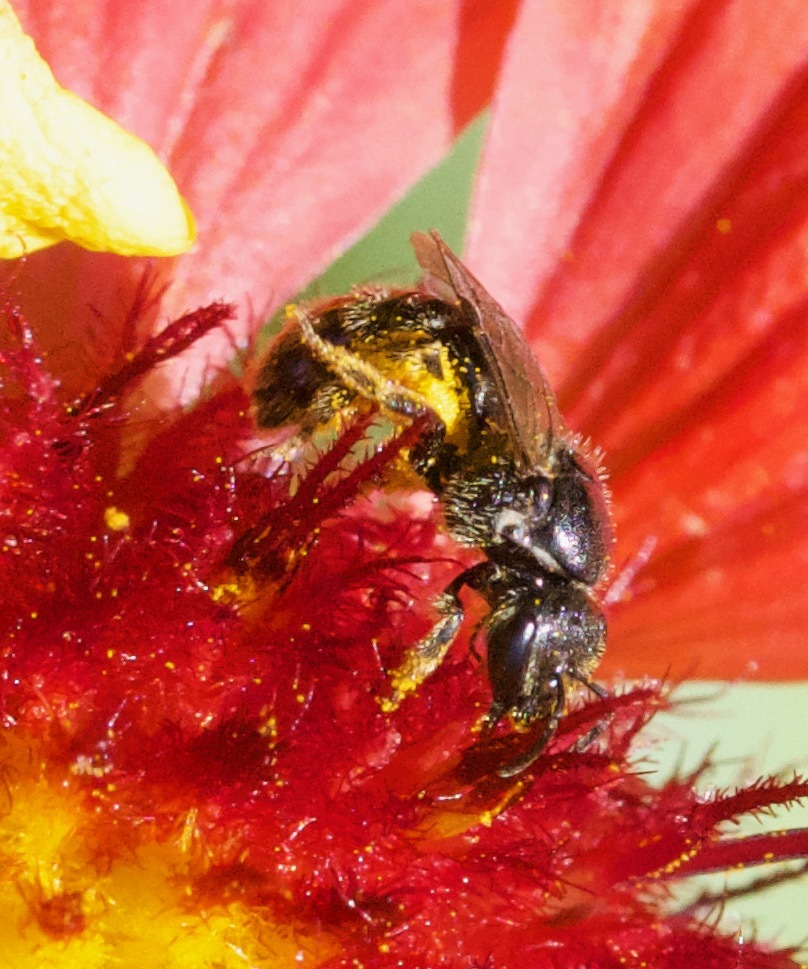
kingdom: Animalia
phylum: Arthropoda
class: Insecta
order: Hymenoptera
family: Halictidae
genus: Lasioglossum
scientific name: Lasioglossum pectorale
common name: Rugose-chested sweat bee
